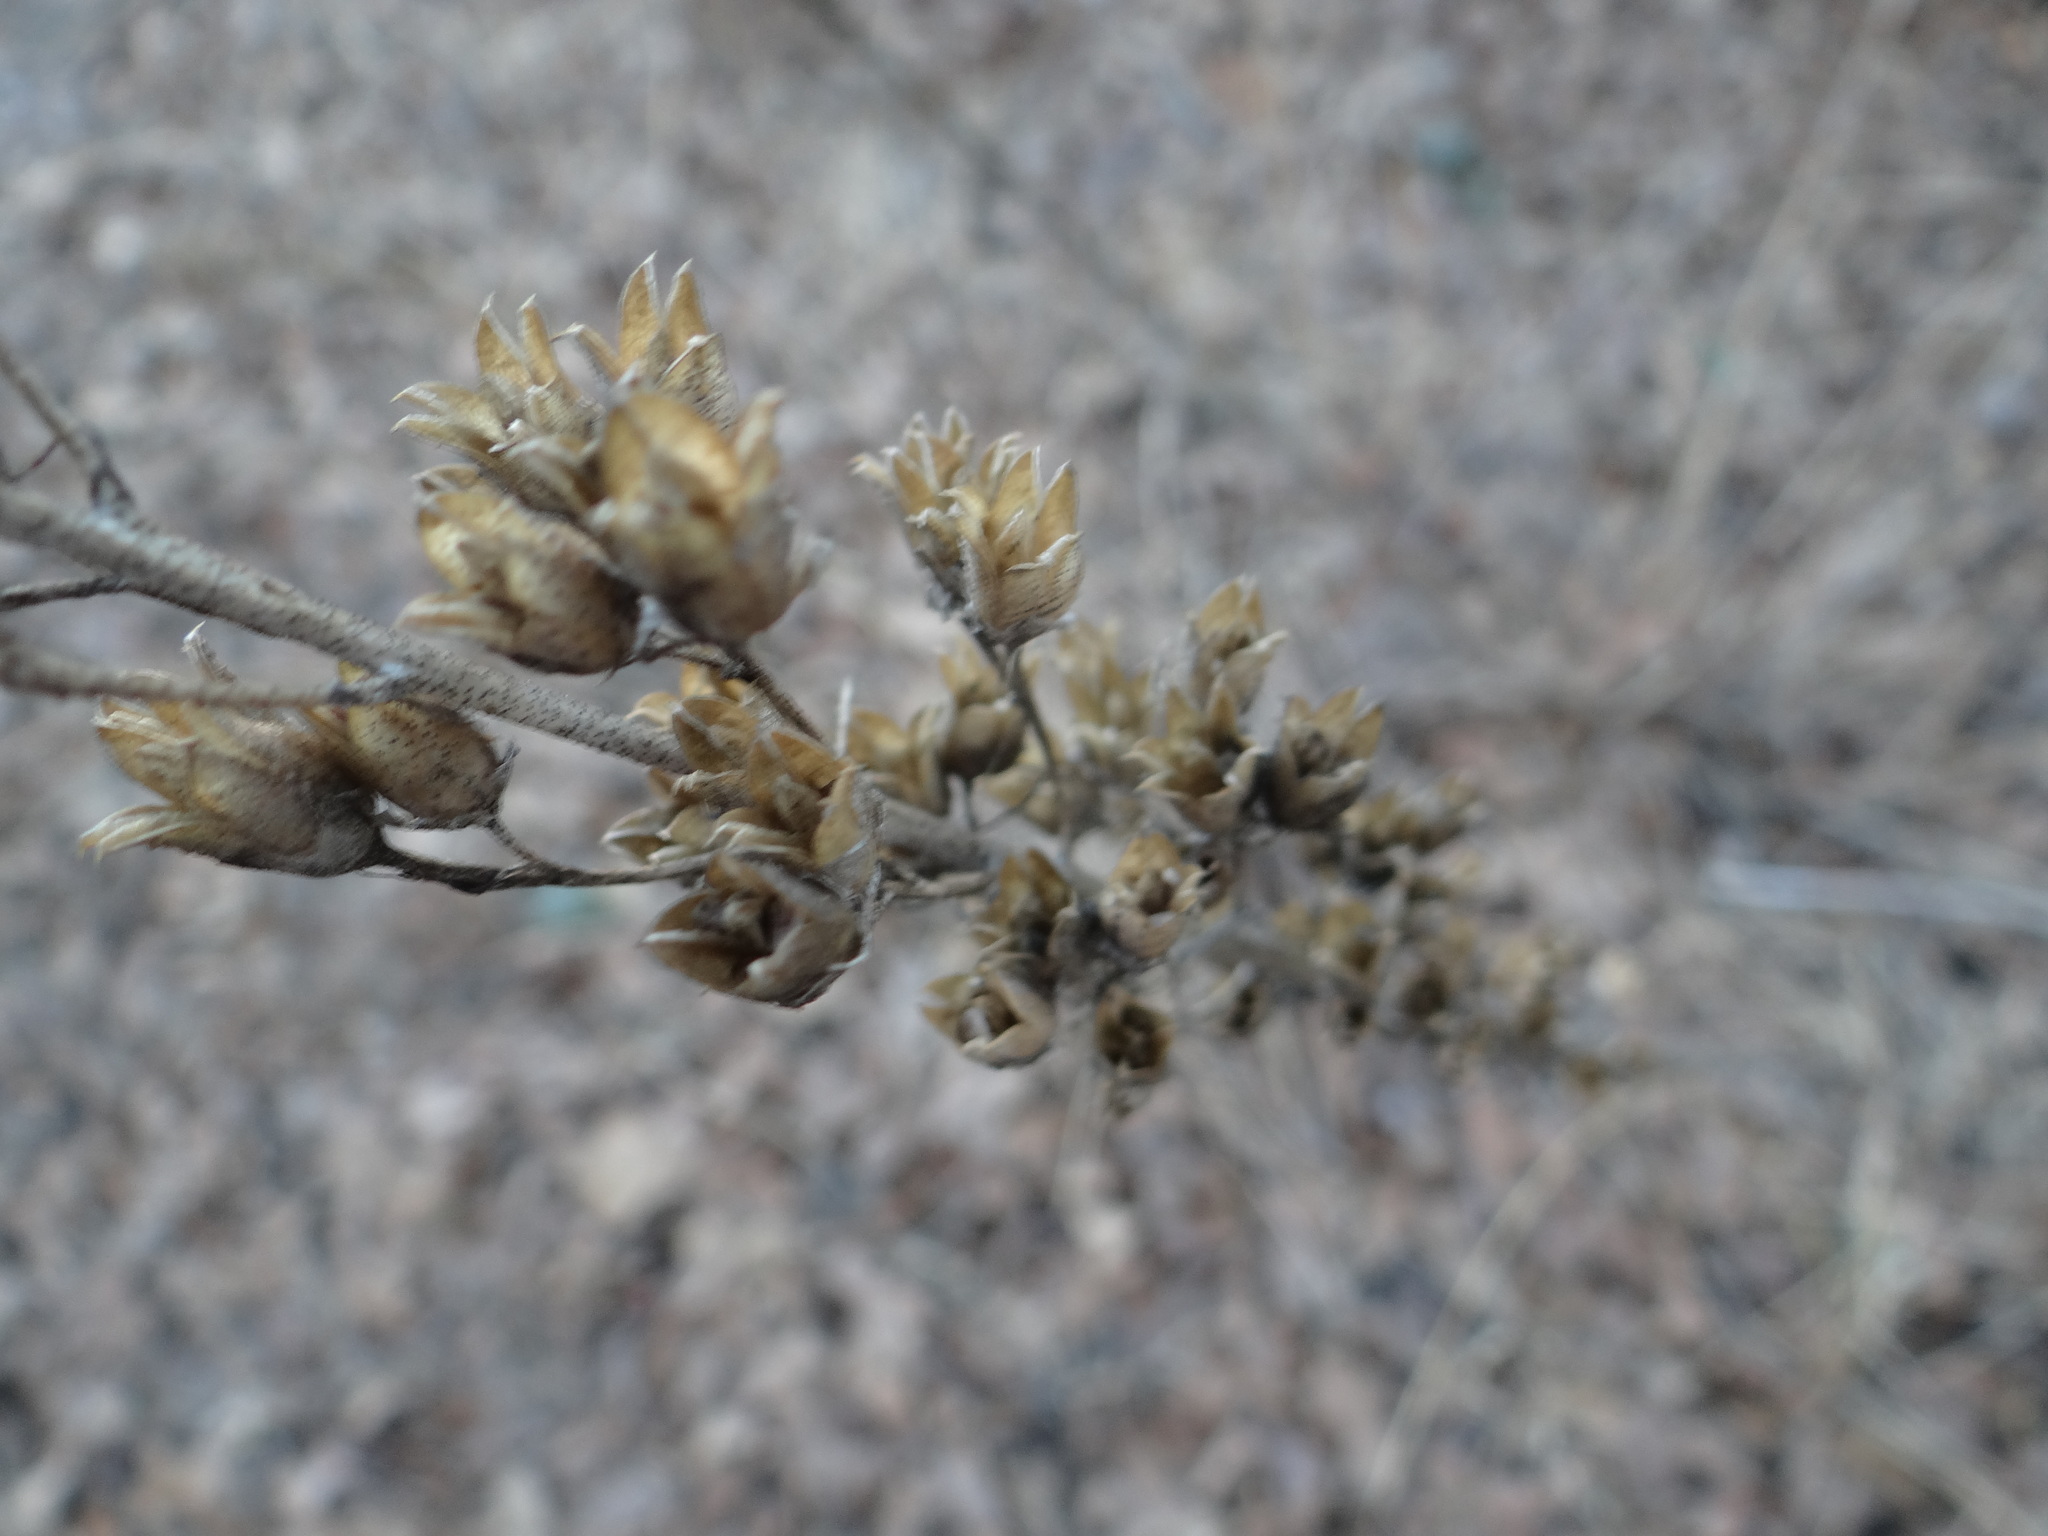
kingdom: Plantae
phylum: Tracheophyta
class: Magnoliopsida
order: Ericales
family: Polemoniaceae
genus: Ipomopsis
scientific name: Ipomopsis rubra
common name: Skyrocket
